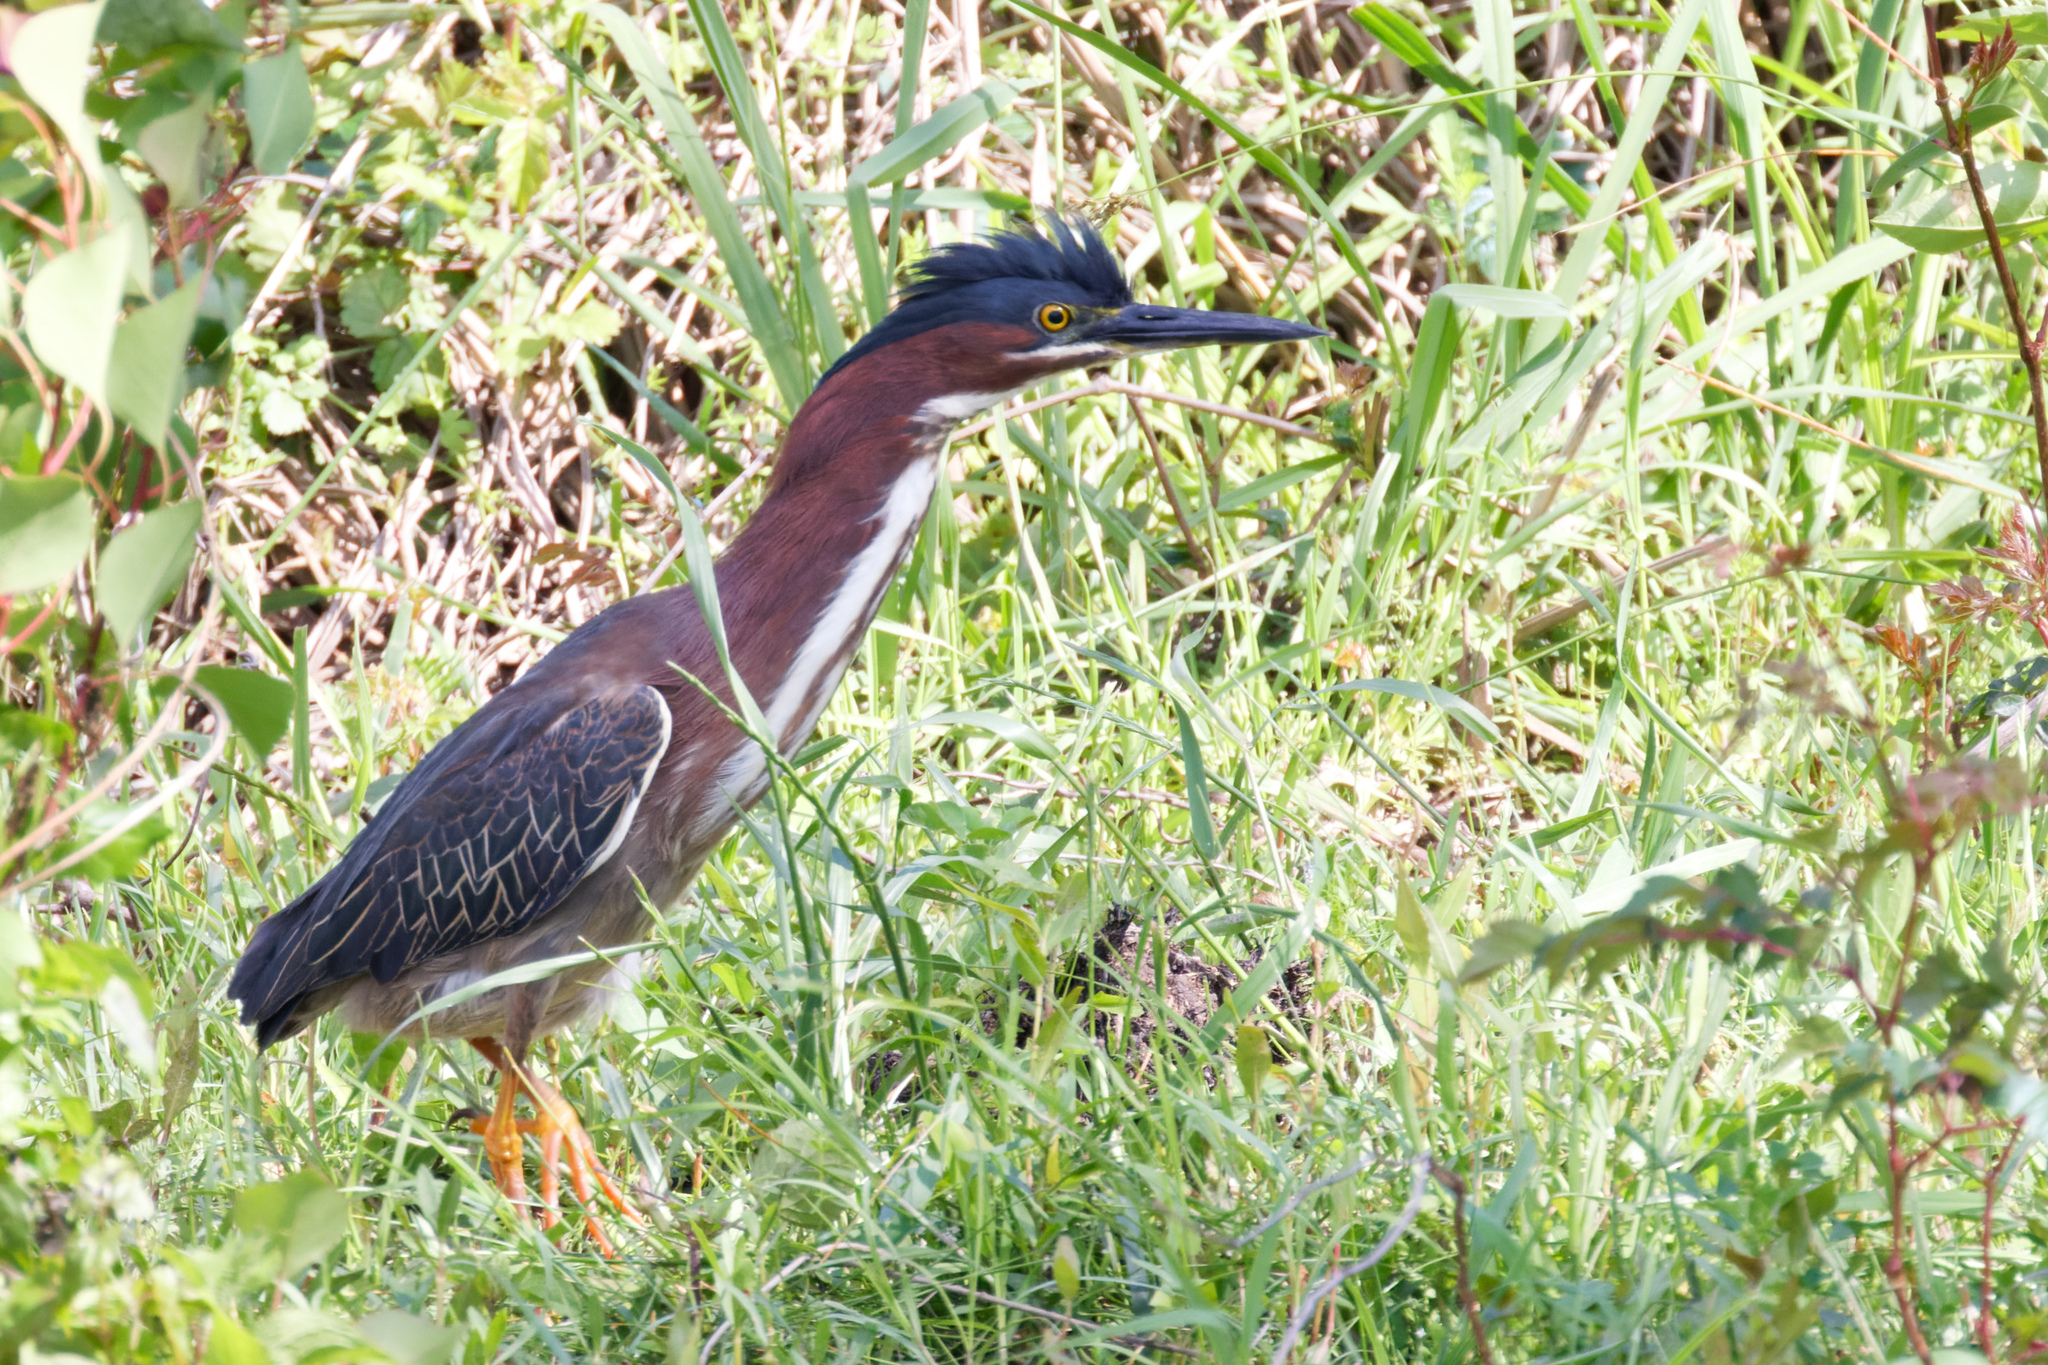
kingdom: Animalia
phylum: Chordata
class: Aves
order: Pelecaniformes
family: Ardeidae
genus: Butorides
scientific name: Butorides virescens
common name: Green heron
